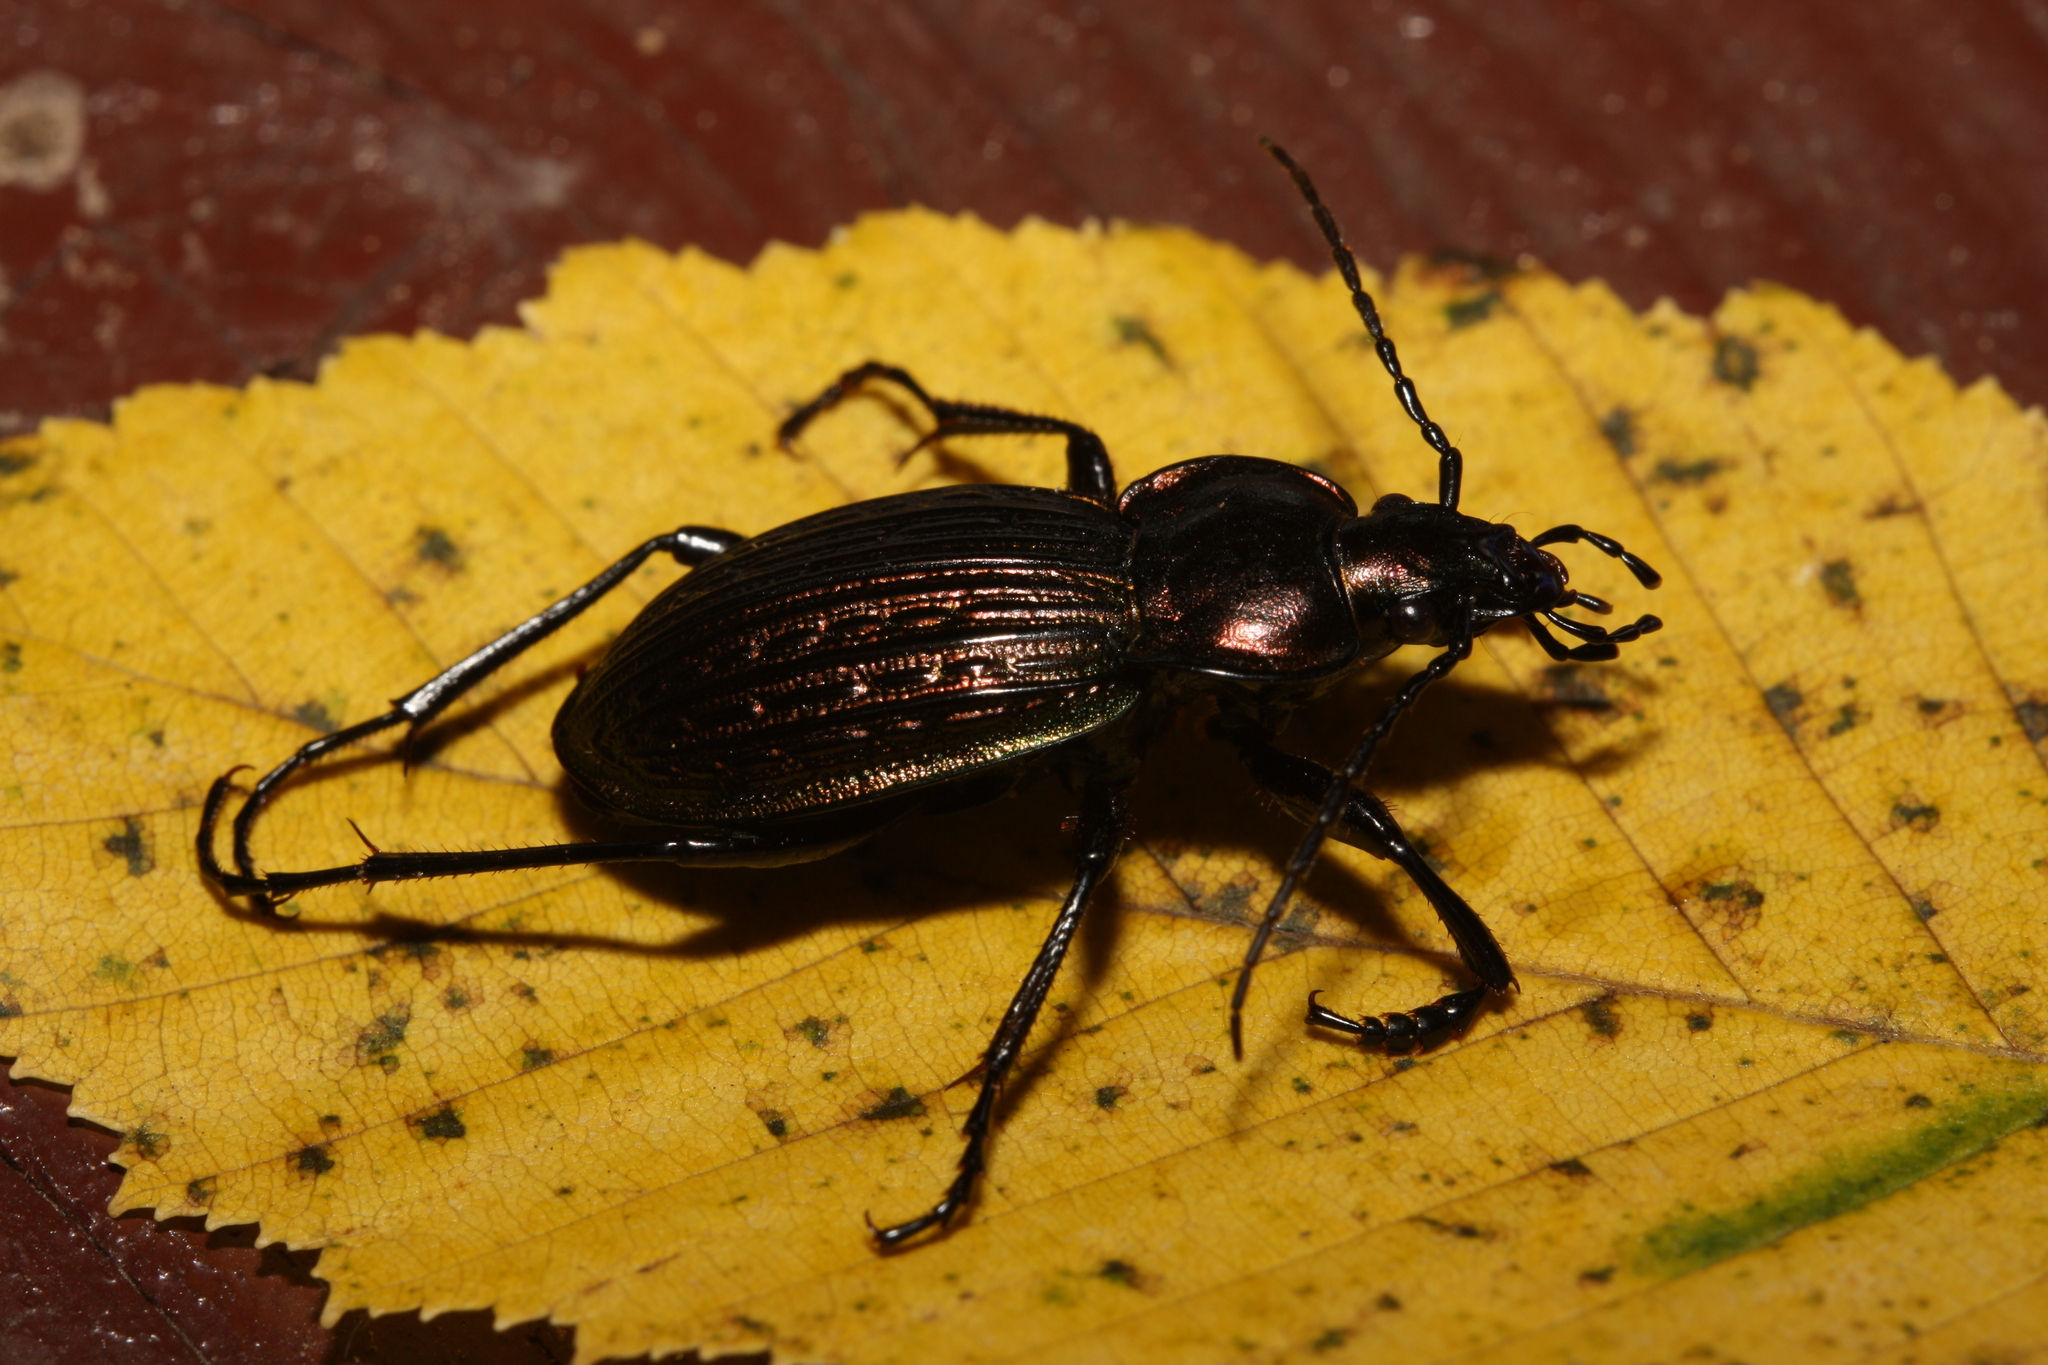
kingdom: Animalia
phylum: Arthropoda
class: Insecta
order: Coleoptera
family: Carabidae
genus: Carabus
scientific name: Carabus ulrichii
